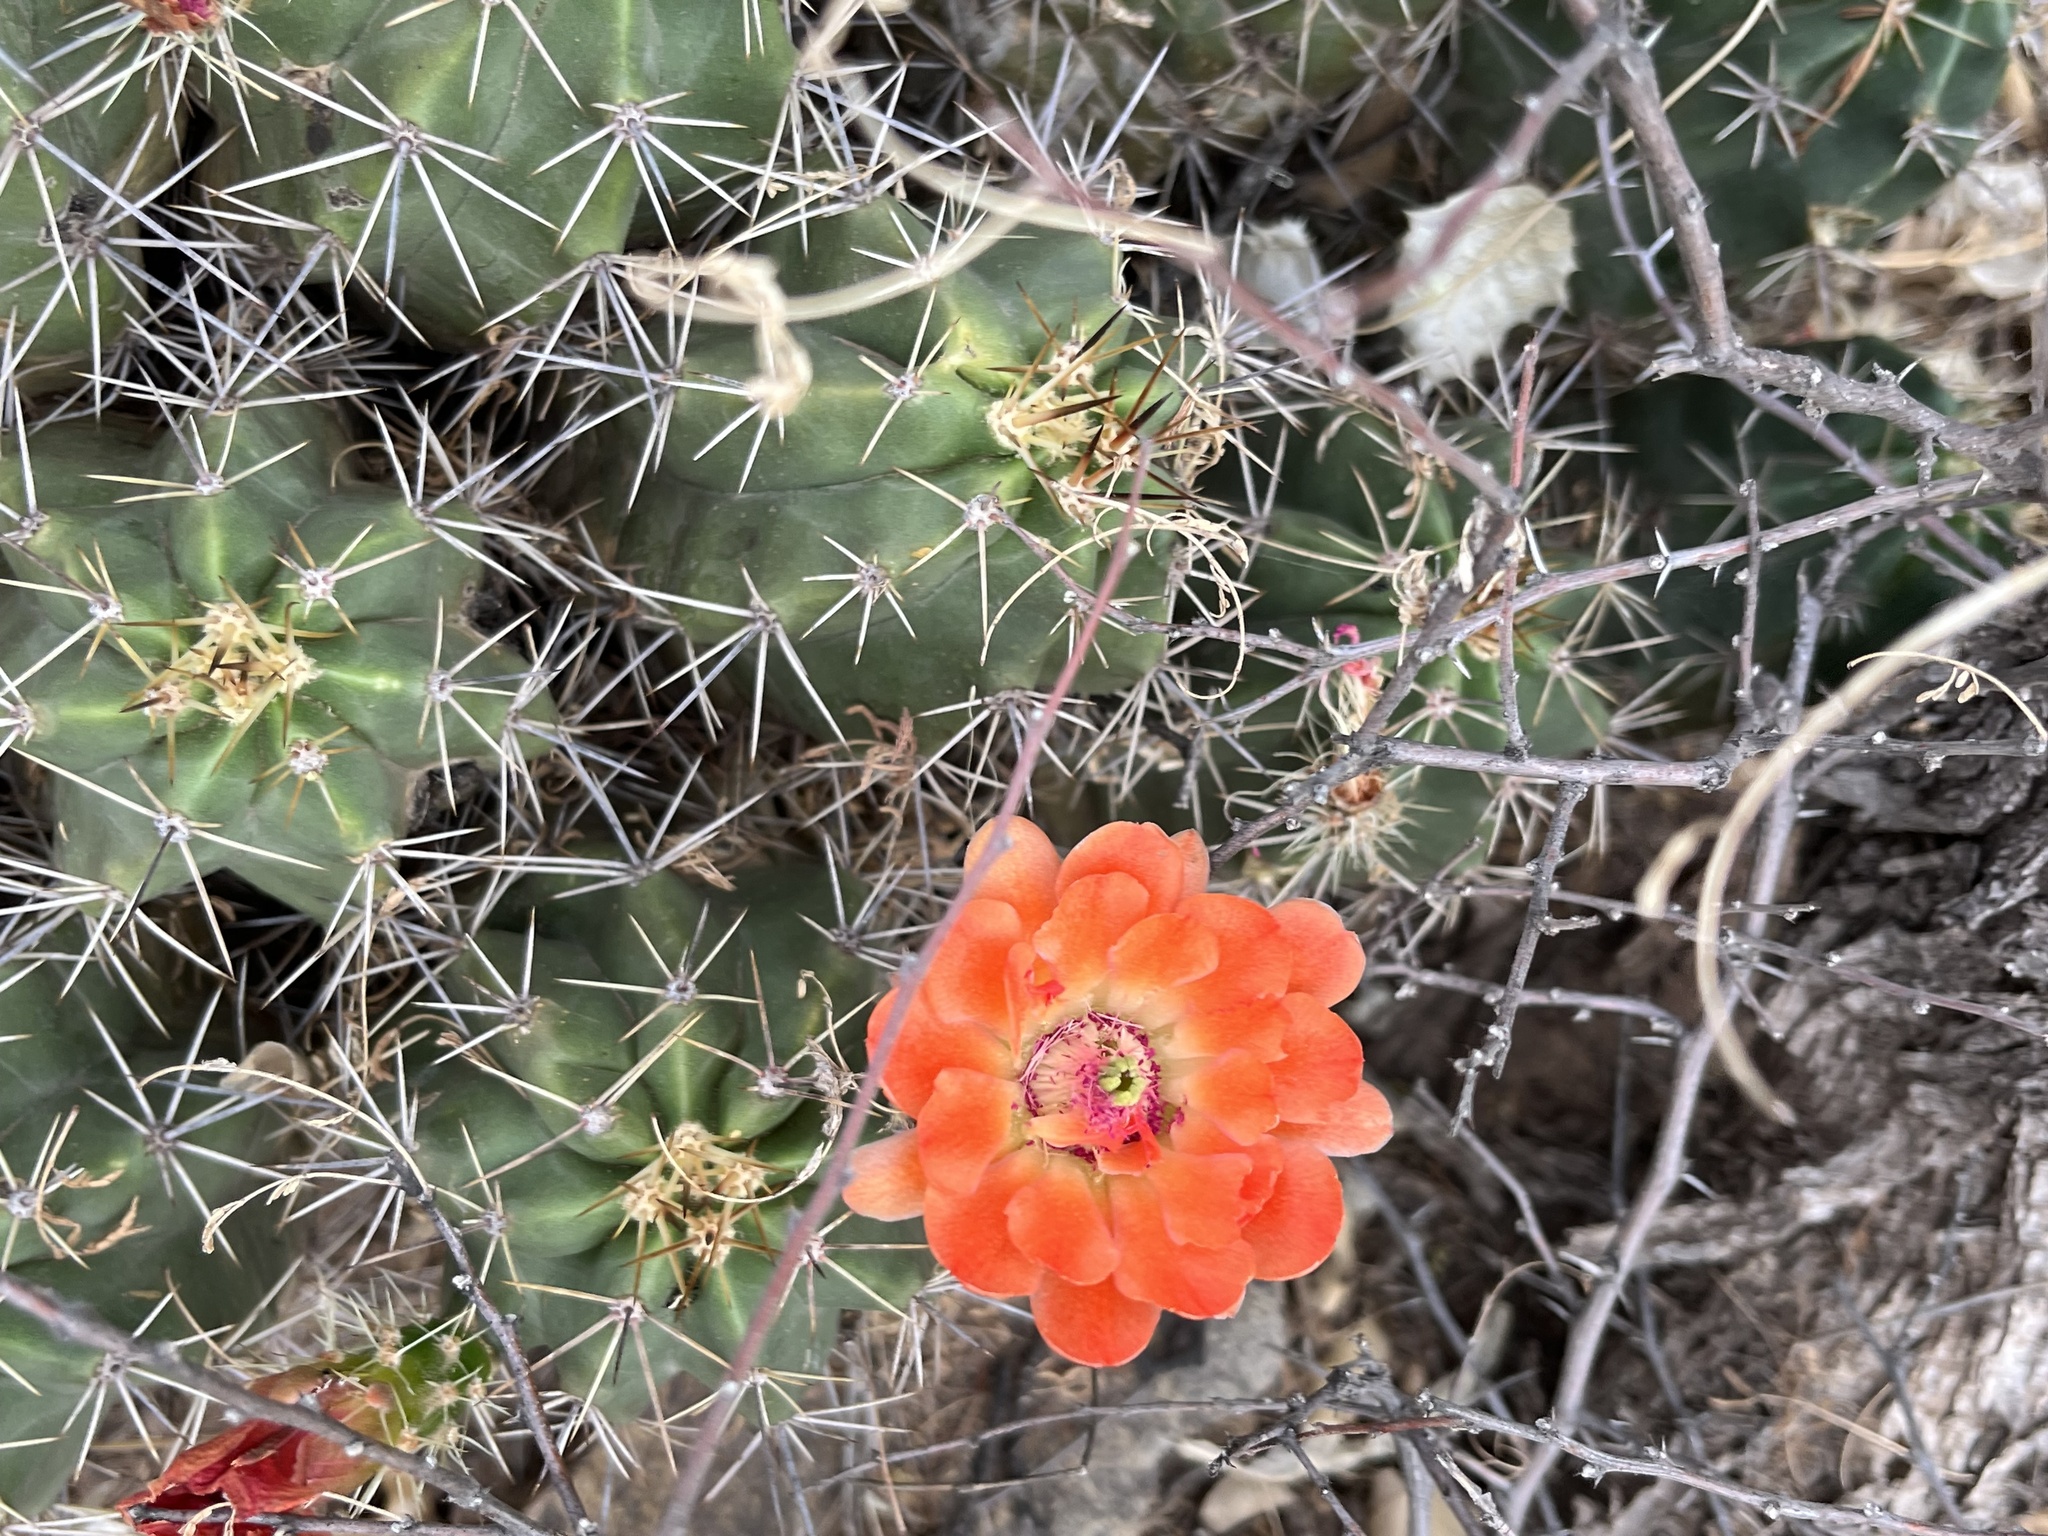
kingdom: Plantae
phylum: Tracheophyta
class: Magnoliopsida
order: Caryophyllales
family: Cactaceae
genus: Echinocereus
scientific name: Echinocereus coccineus
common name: Scarlet hedgehog cactus
